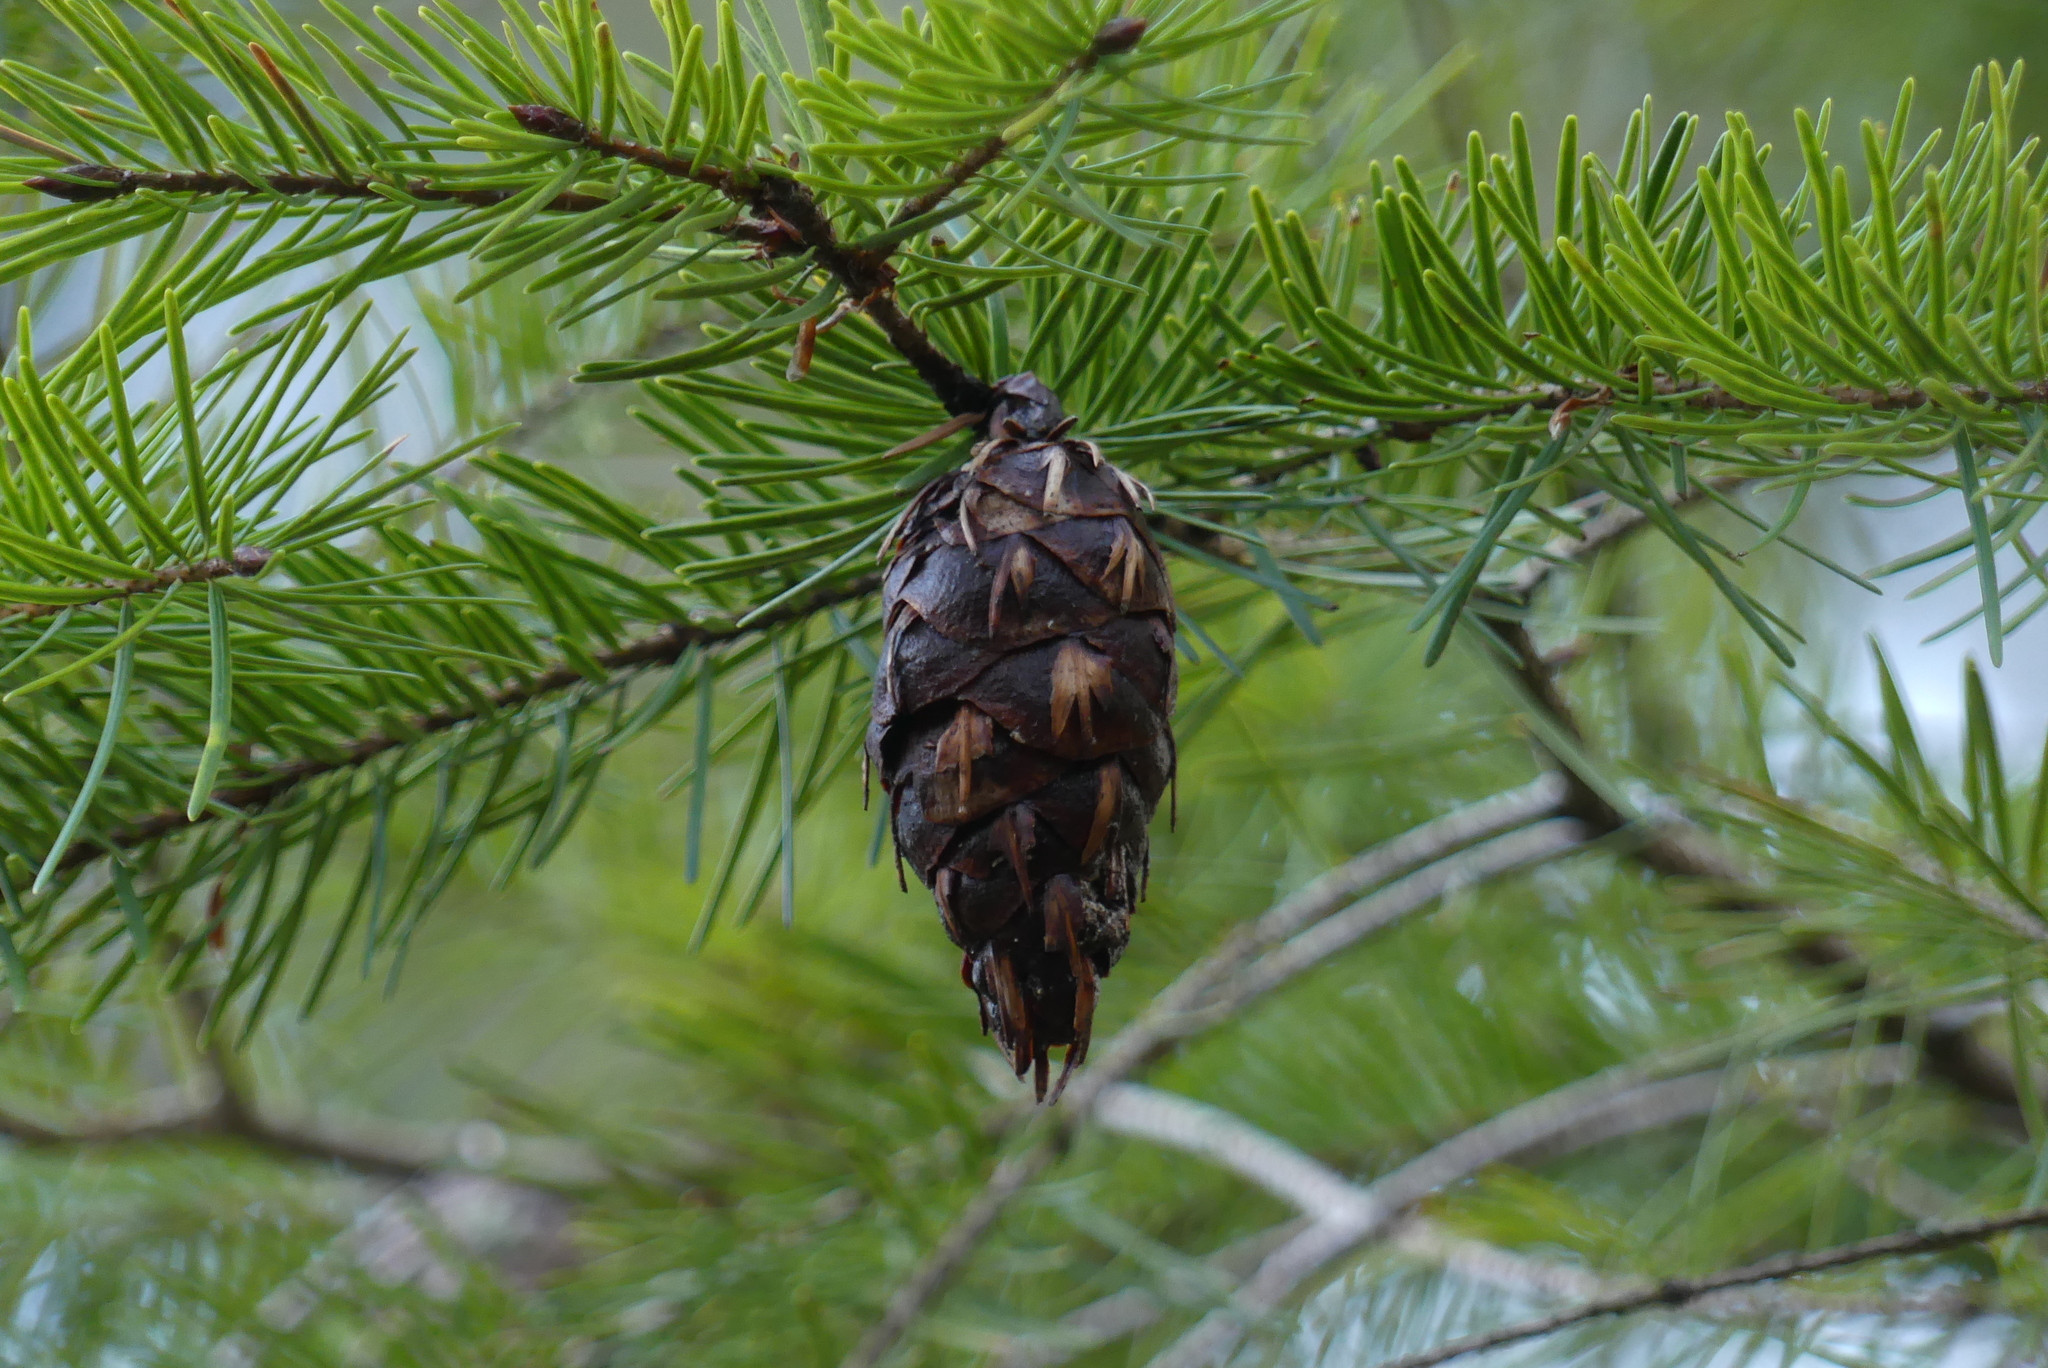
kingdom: Plantae
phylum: Tracheophyta
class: Pinopsida
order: Pinales
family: Pinaceae
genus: Pseudotsuga
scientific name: Pseudotsuga menziesii
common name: Douglas fir
